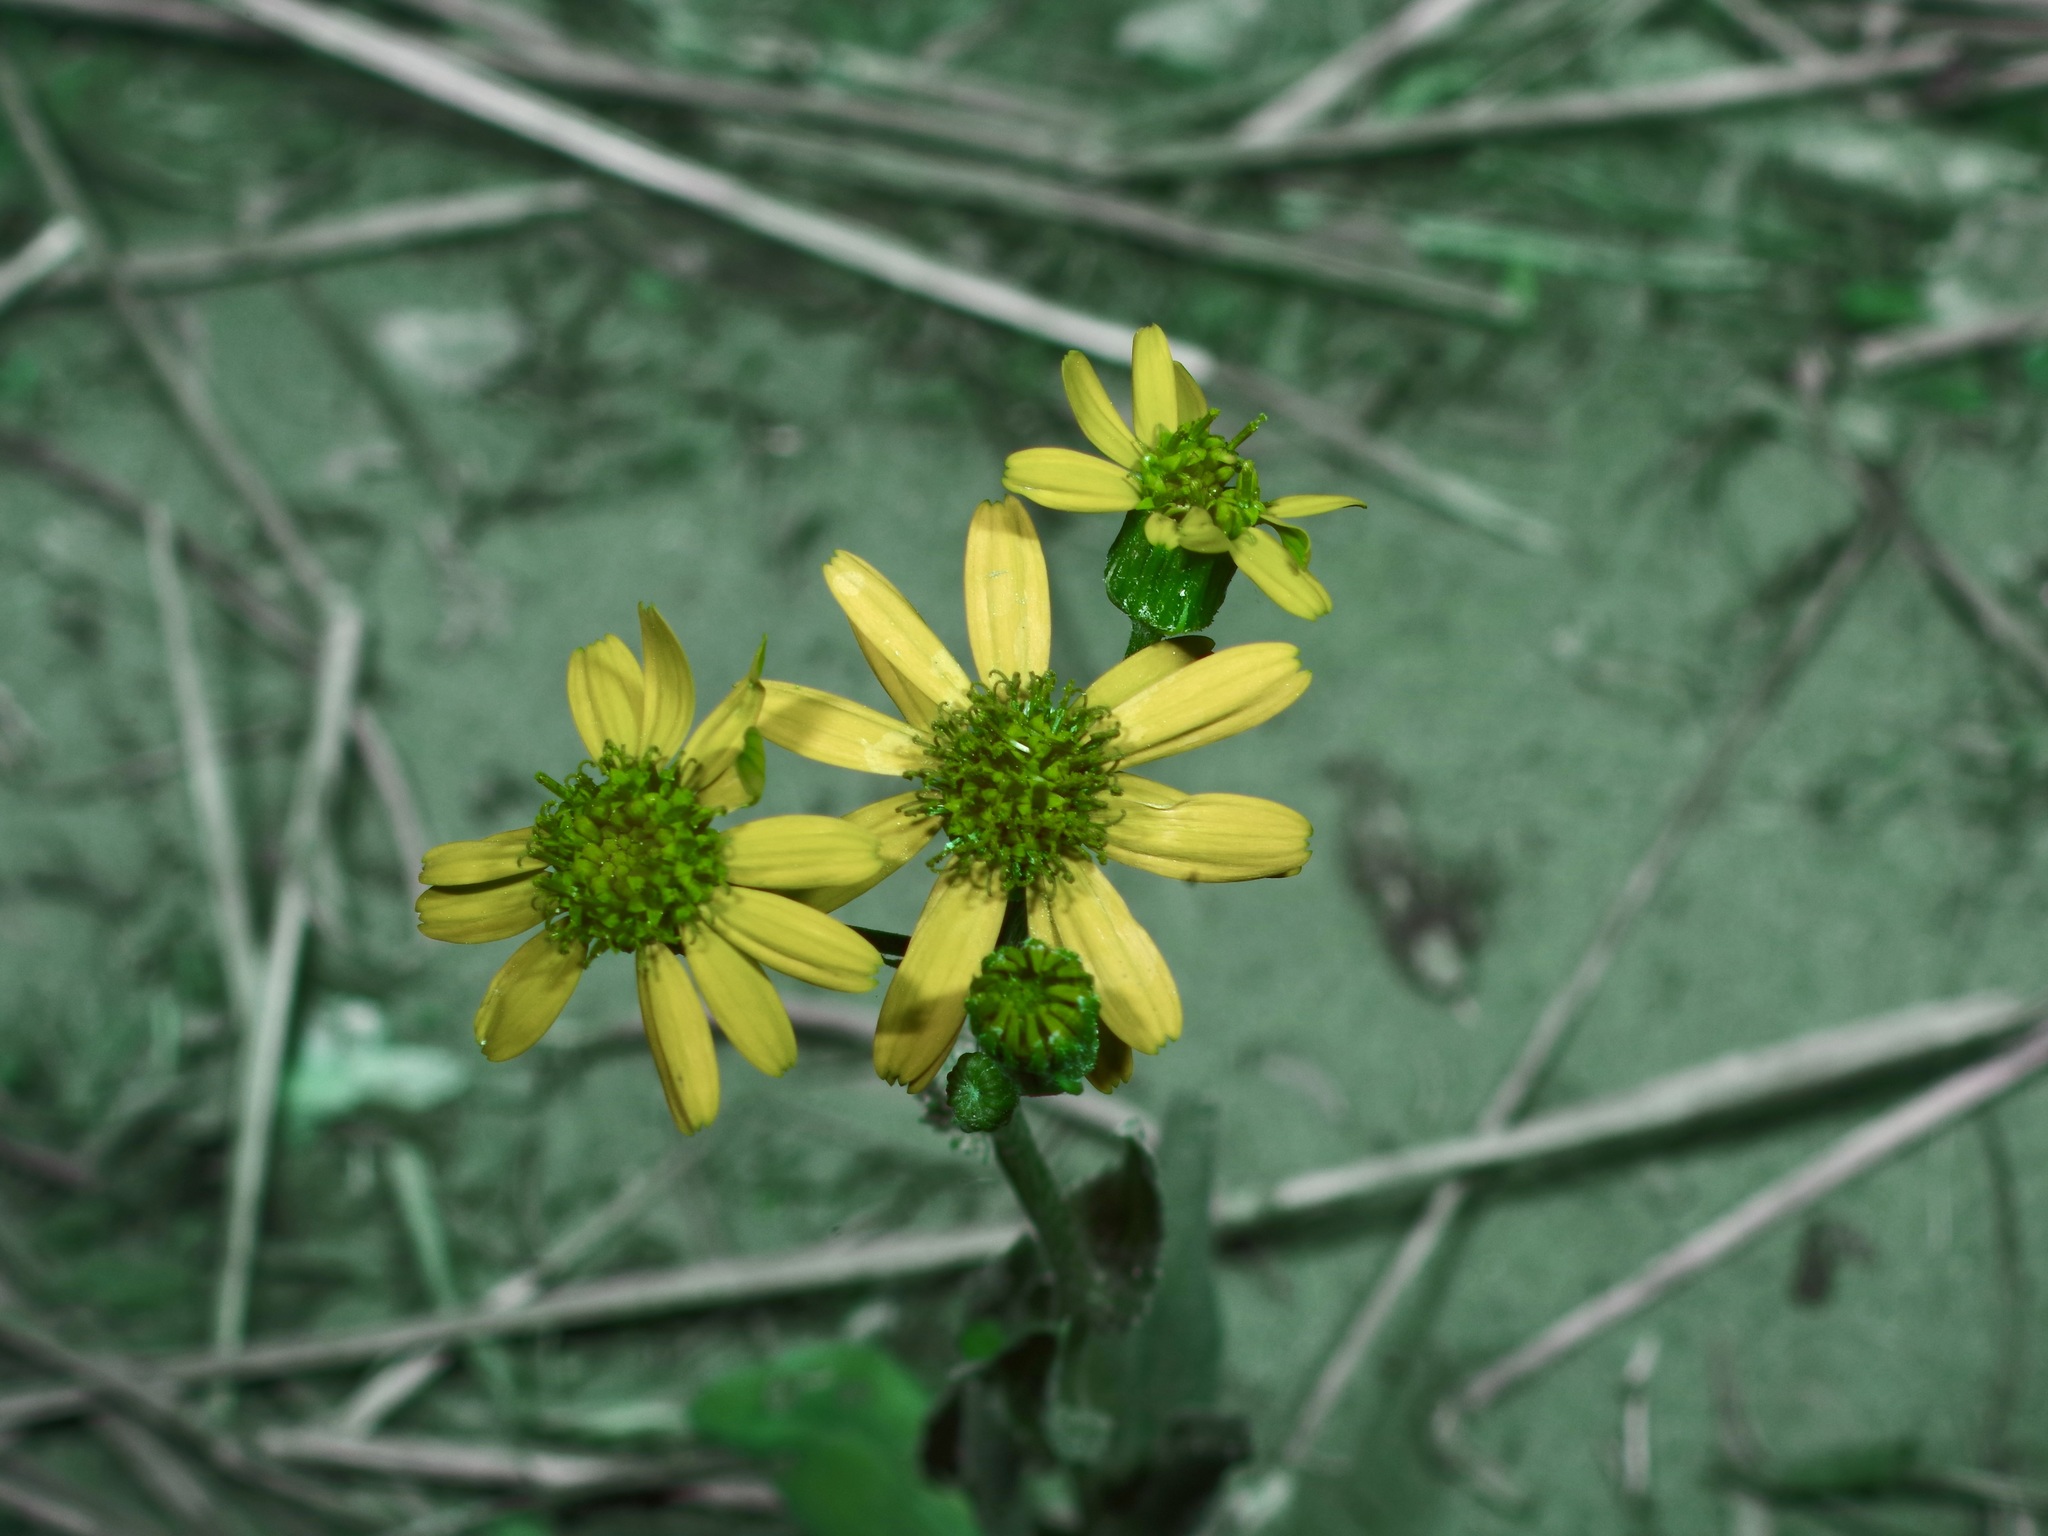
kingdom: Plantae
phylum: Tracheophyta
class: Magnoliopsida
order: Asterales
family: Asteraceae
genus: Senecio
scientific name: Senecio ampullaceus
